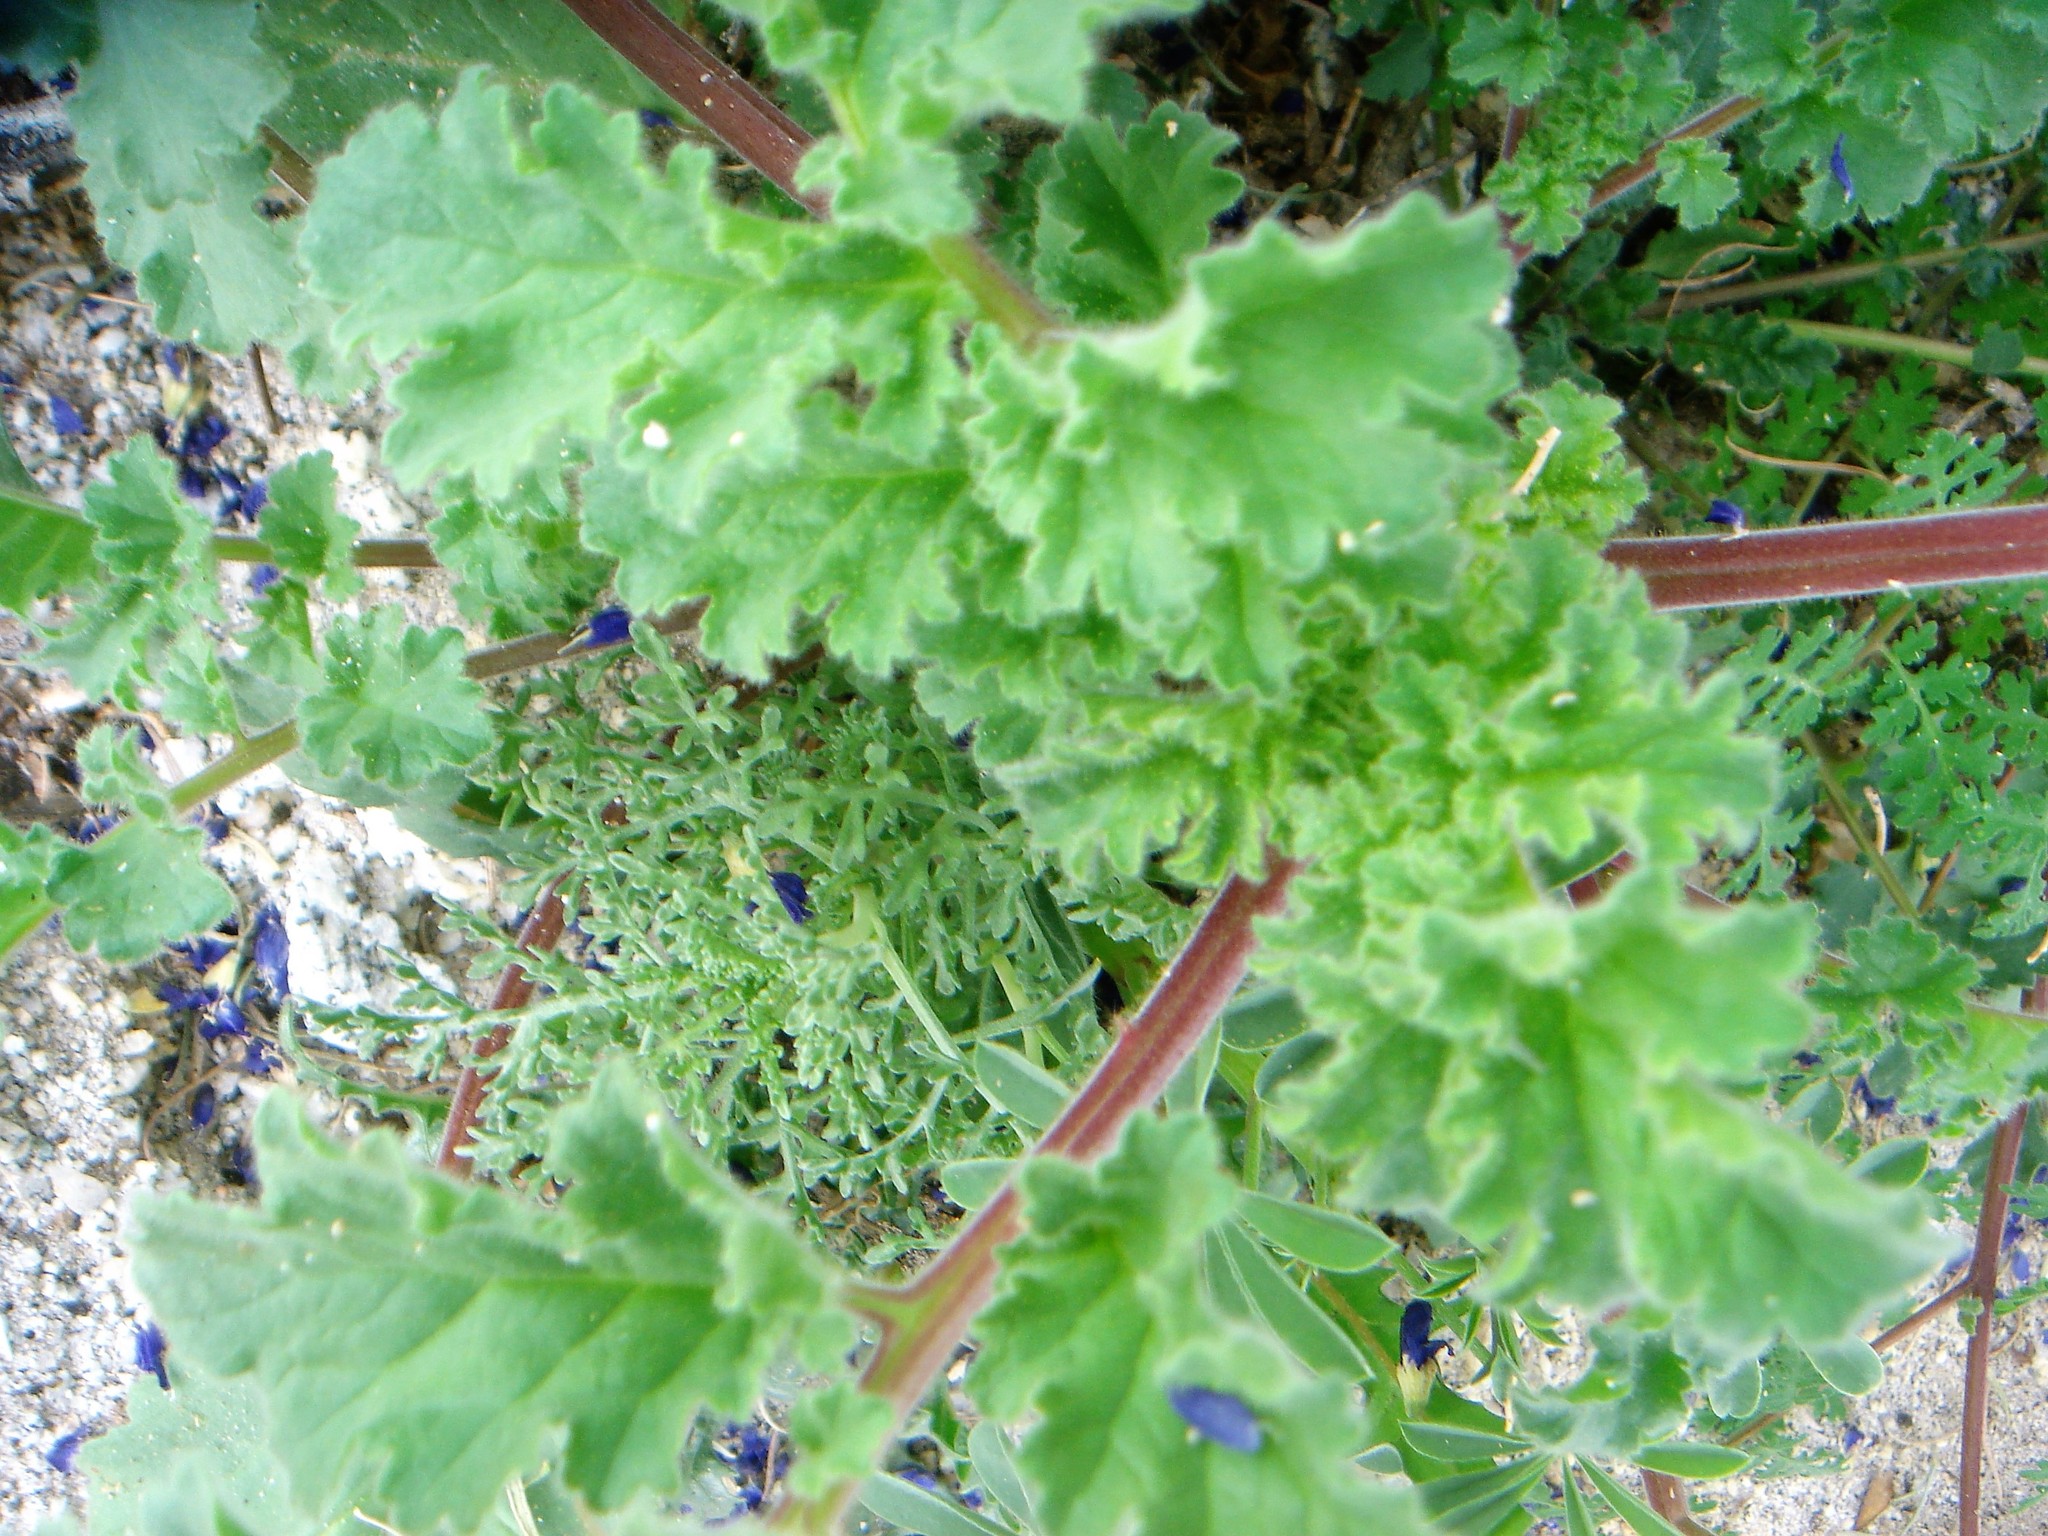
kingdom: Plantae
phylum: Tracheophyta
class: Magnoliopsida
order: Boraginales
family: Hydrophyllaceae
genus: Phacelia
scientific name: Phacelia pedicellata
